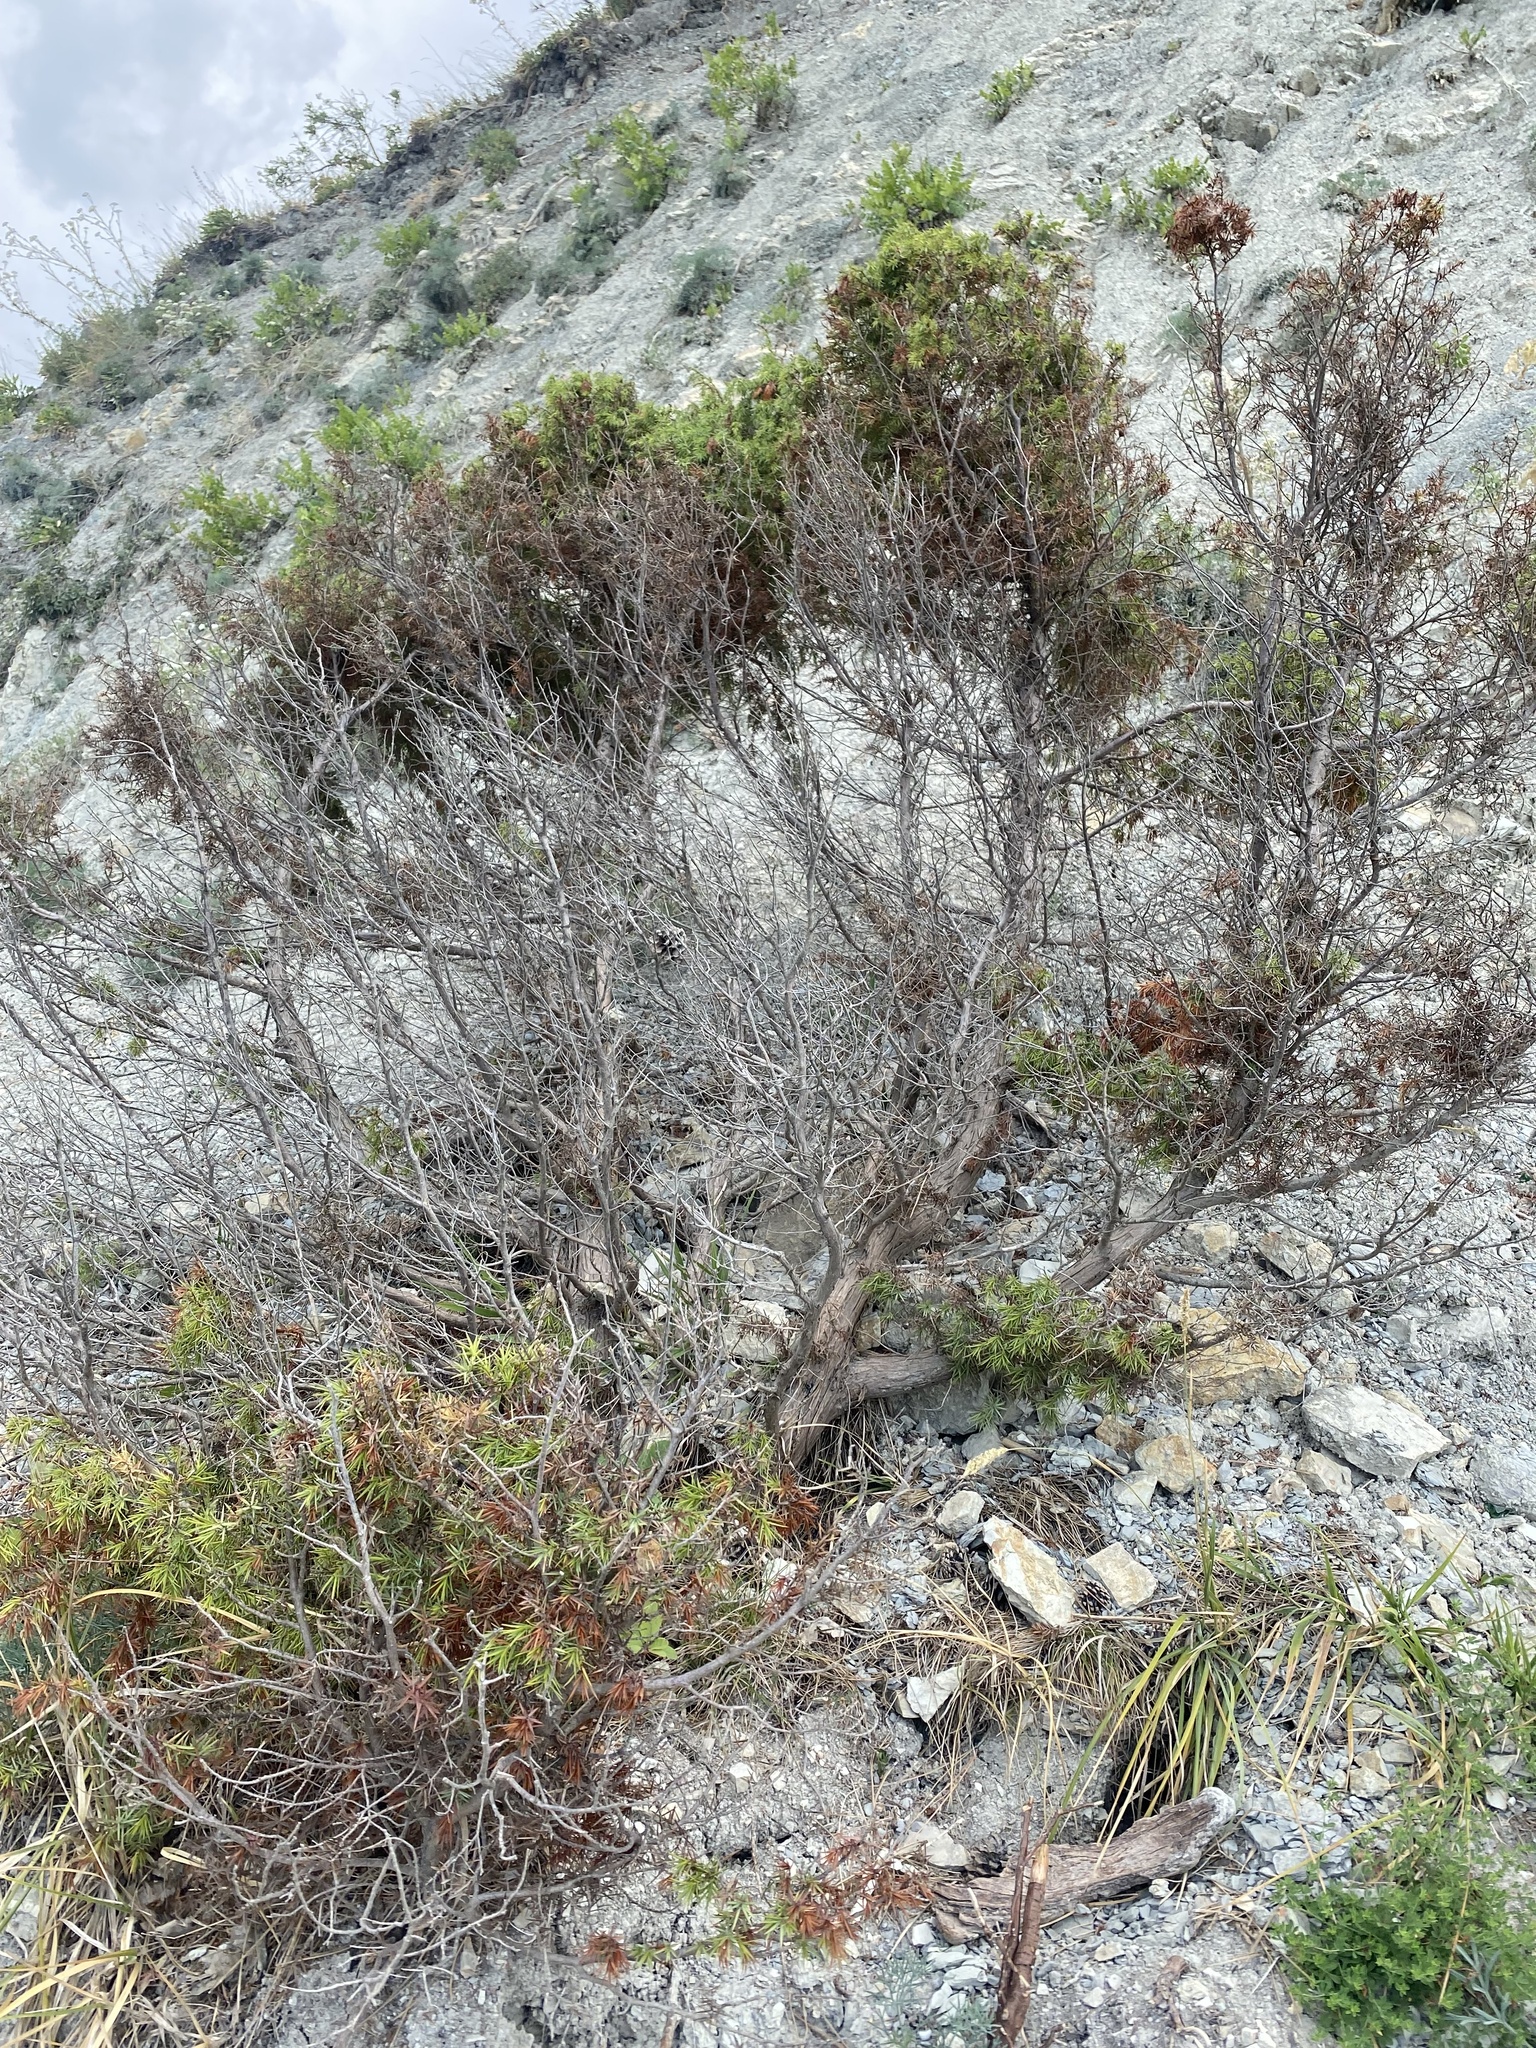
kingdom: Plantae
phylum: Tracheophyta
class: Pinopsida
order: Pinales
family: Cupressaceae
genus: Juniperus
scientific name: Juniperus oxycedrus
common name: Prickly juniper
